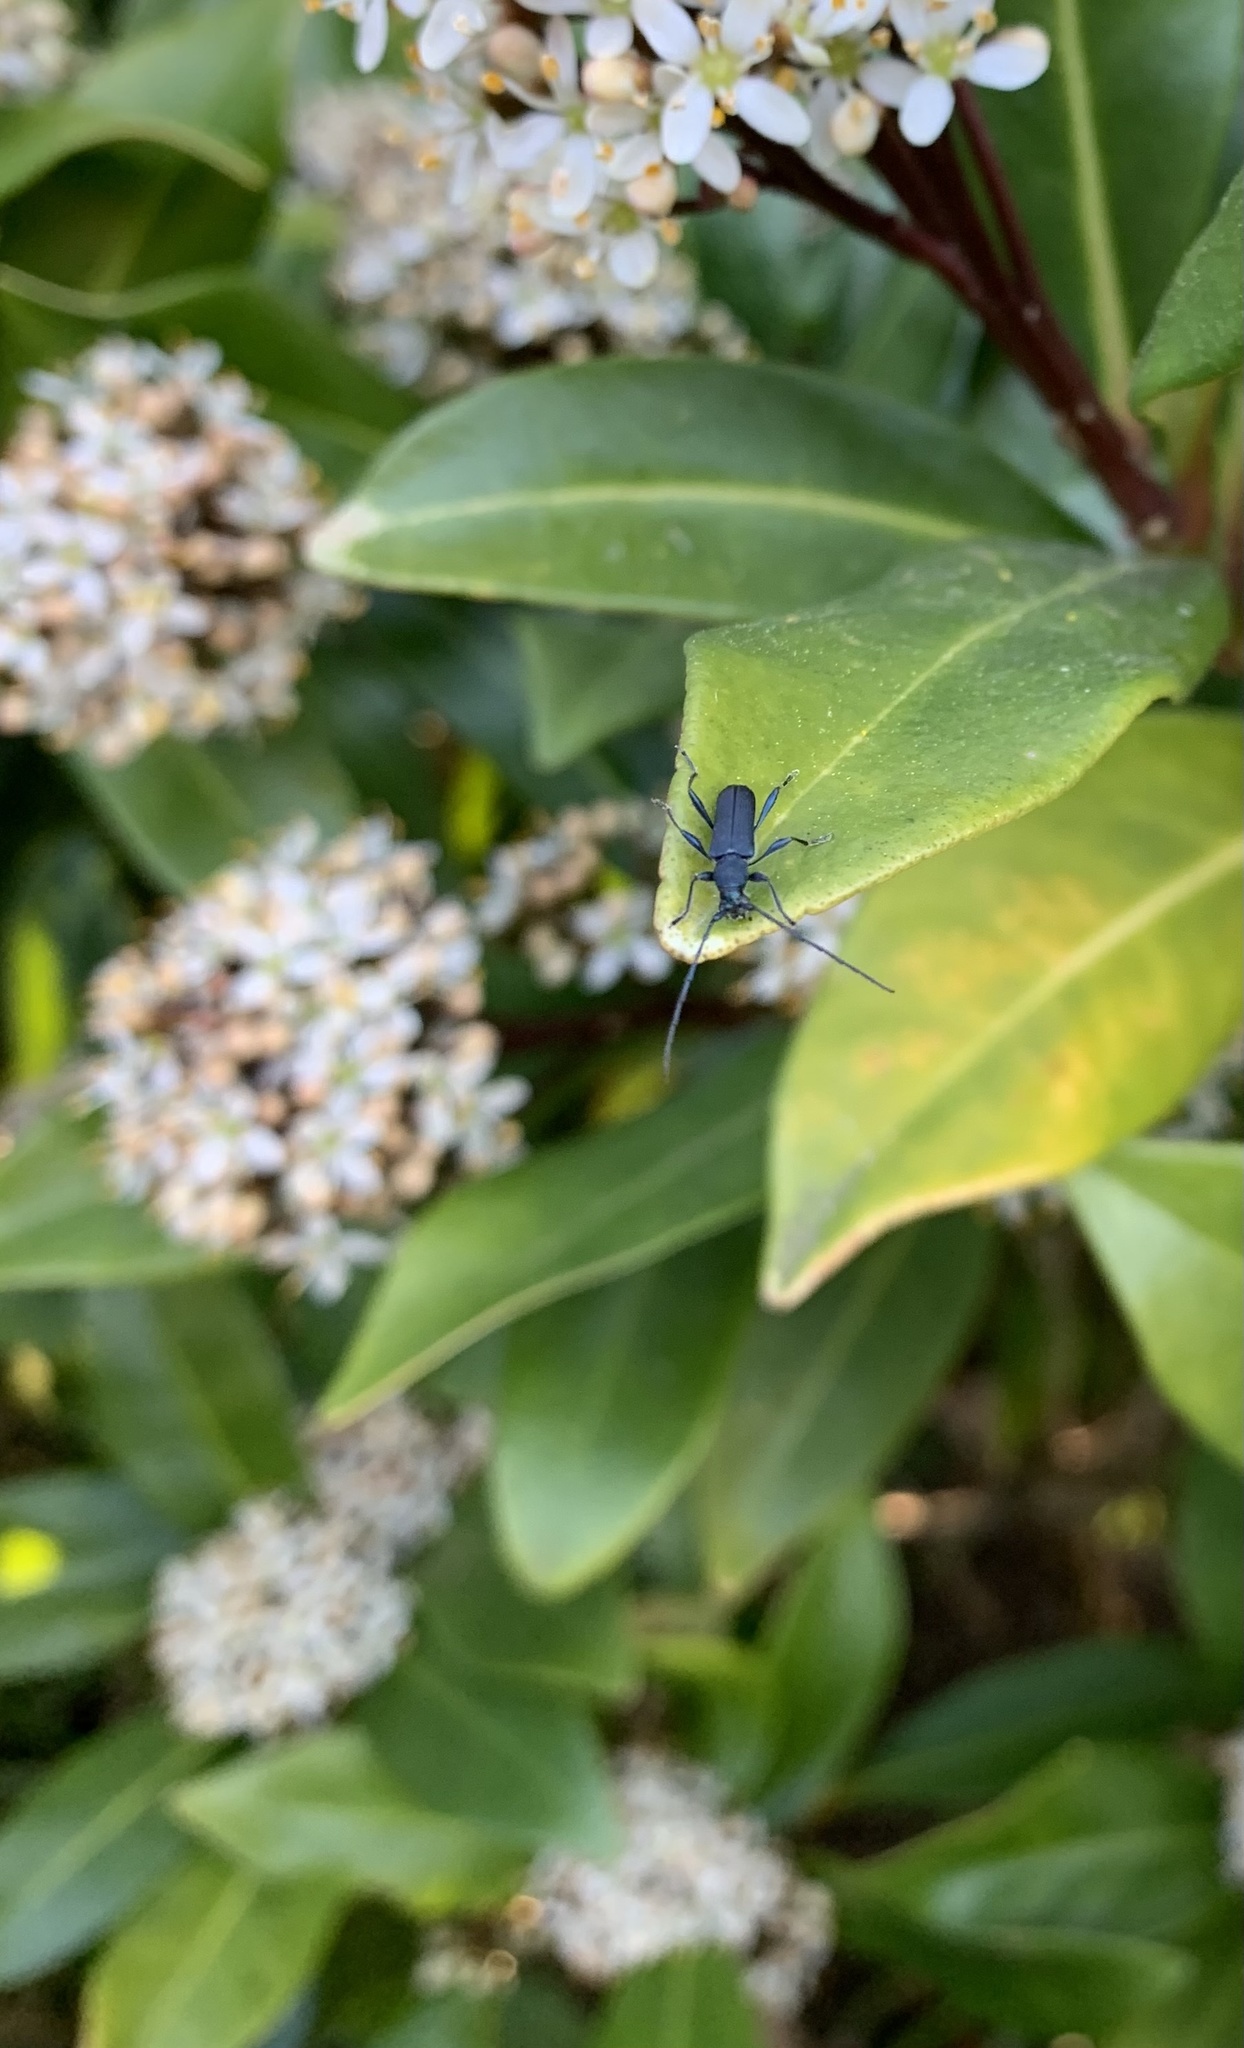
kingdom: Animalia
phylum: Arthropoda
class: Insecta
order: Coleoptera
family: Cerambycidae
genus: Eryphus
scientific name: Eryphus laetus
